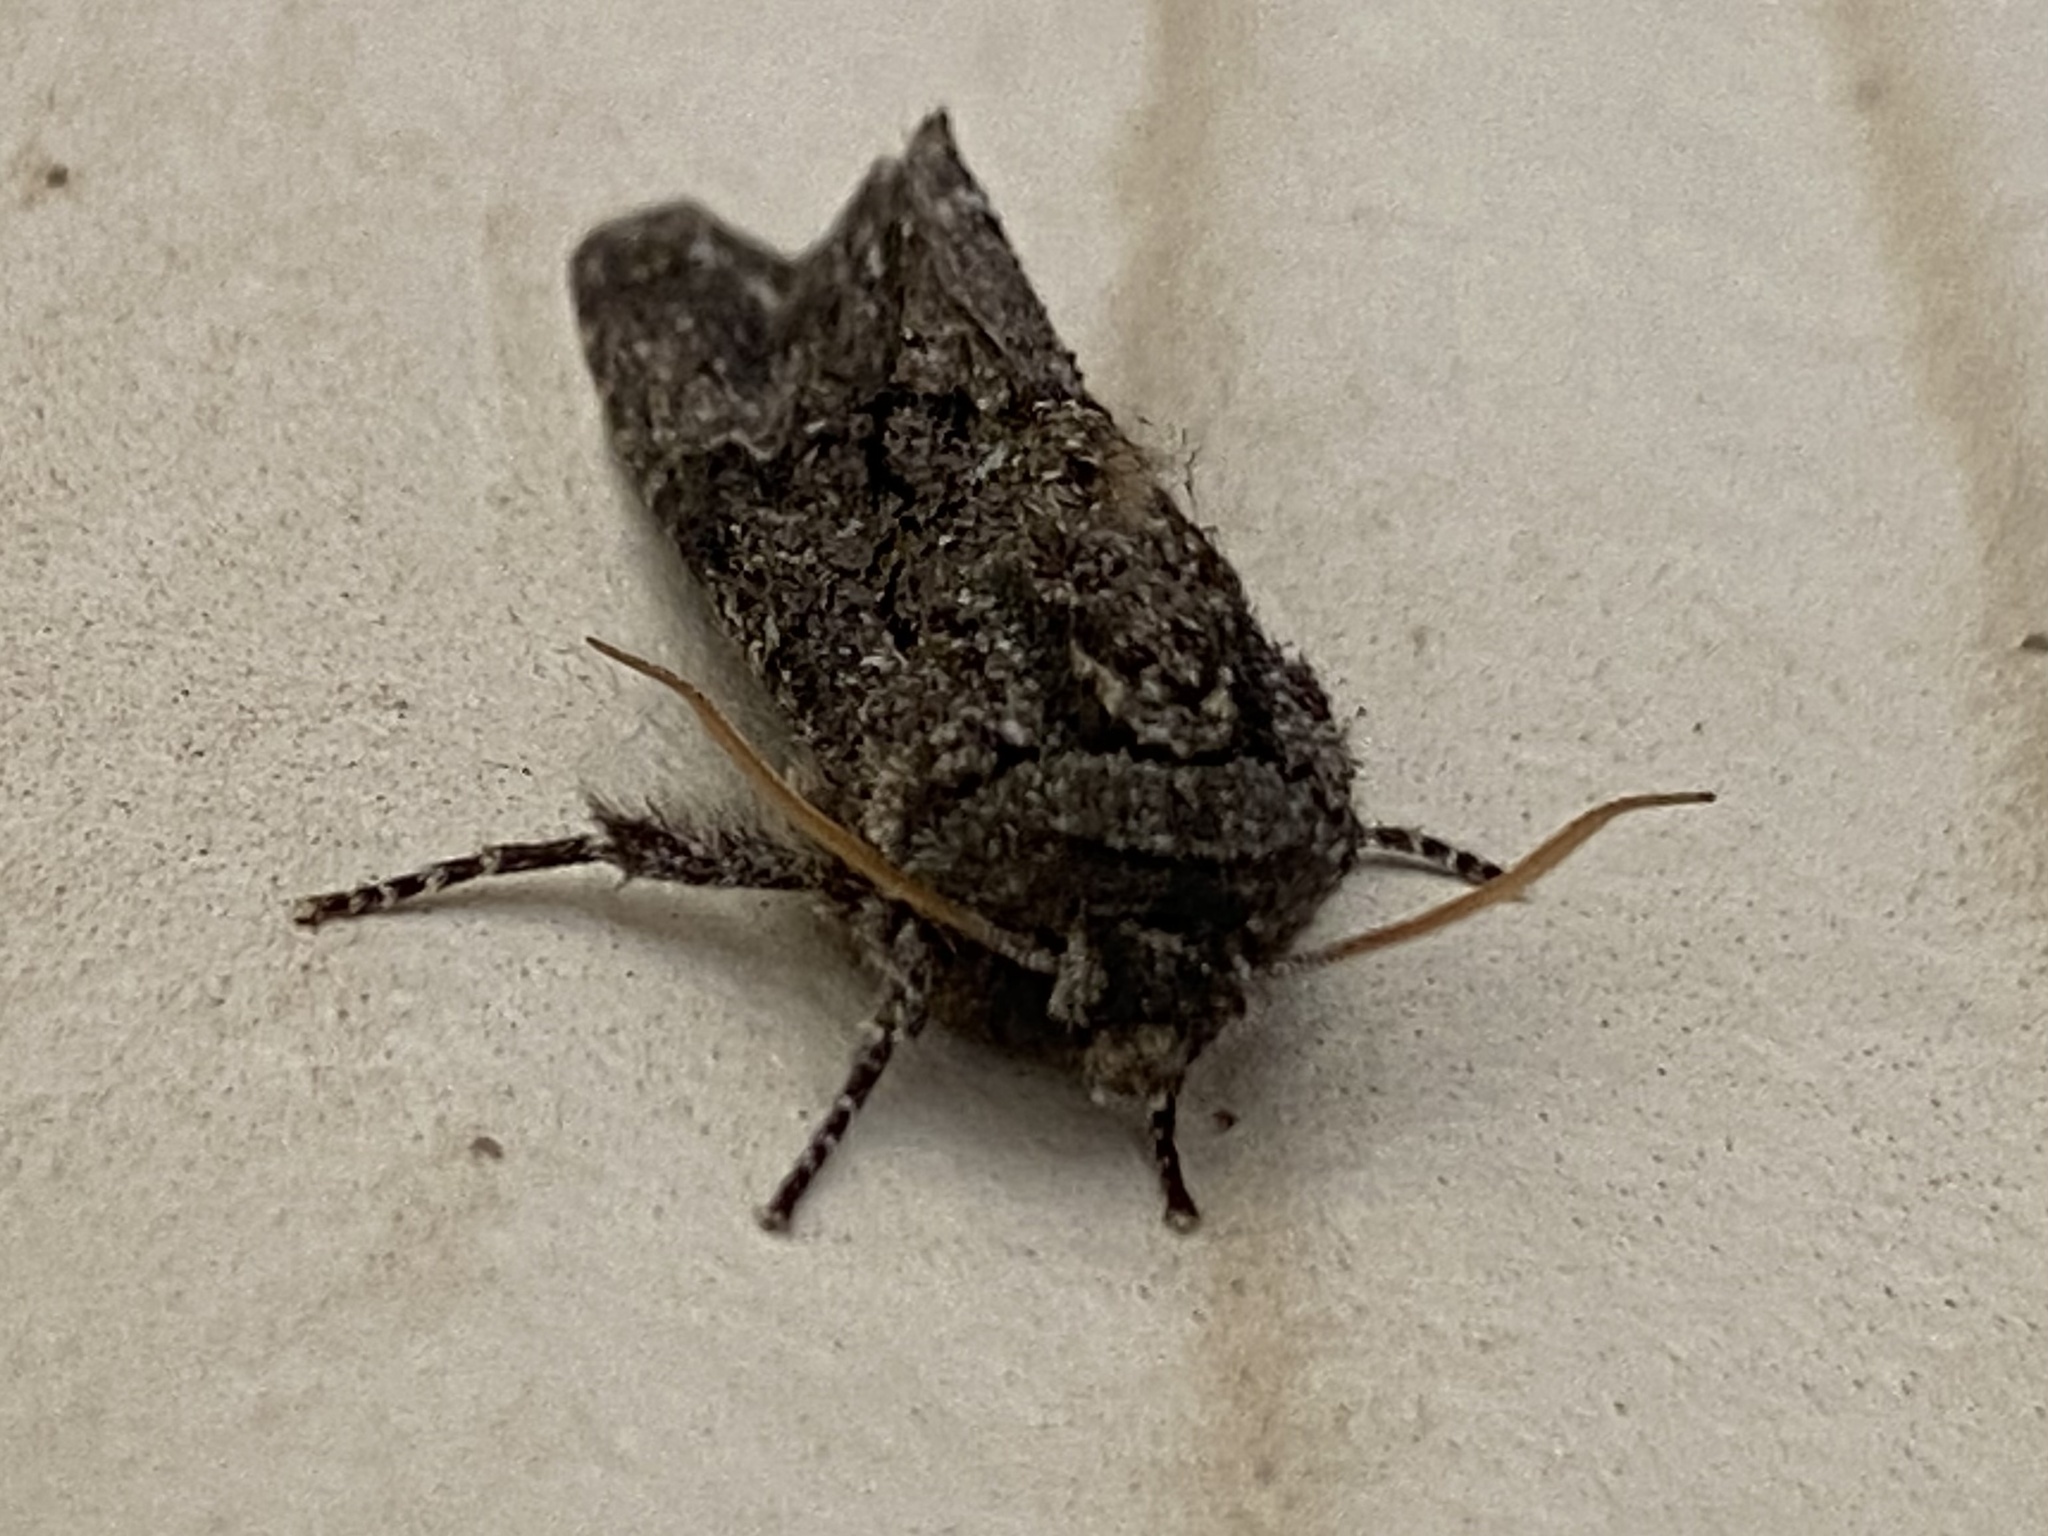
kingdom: Animalia
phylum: Arthropoda
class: Insecta
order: Lepidoptera
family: Noctuidae
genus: Psaphida
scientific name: Psaphida grotei
